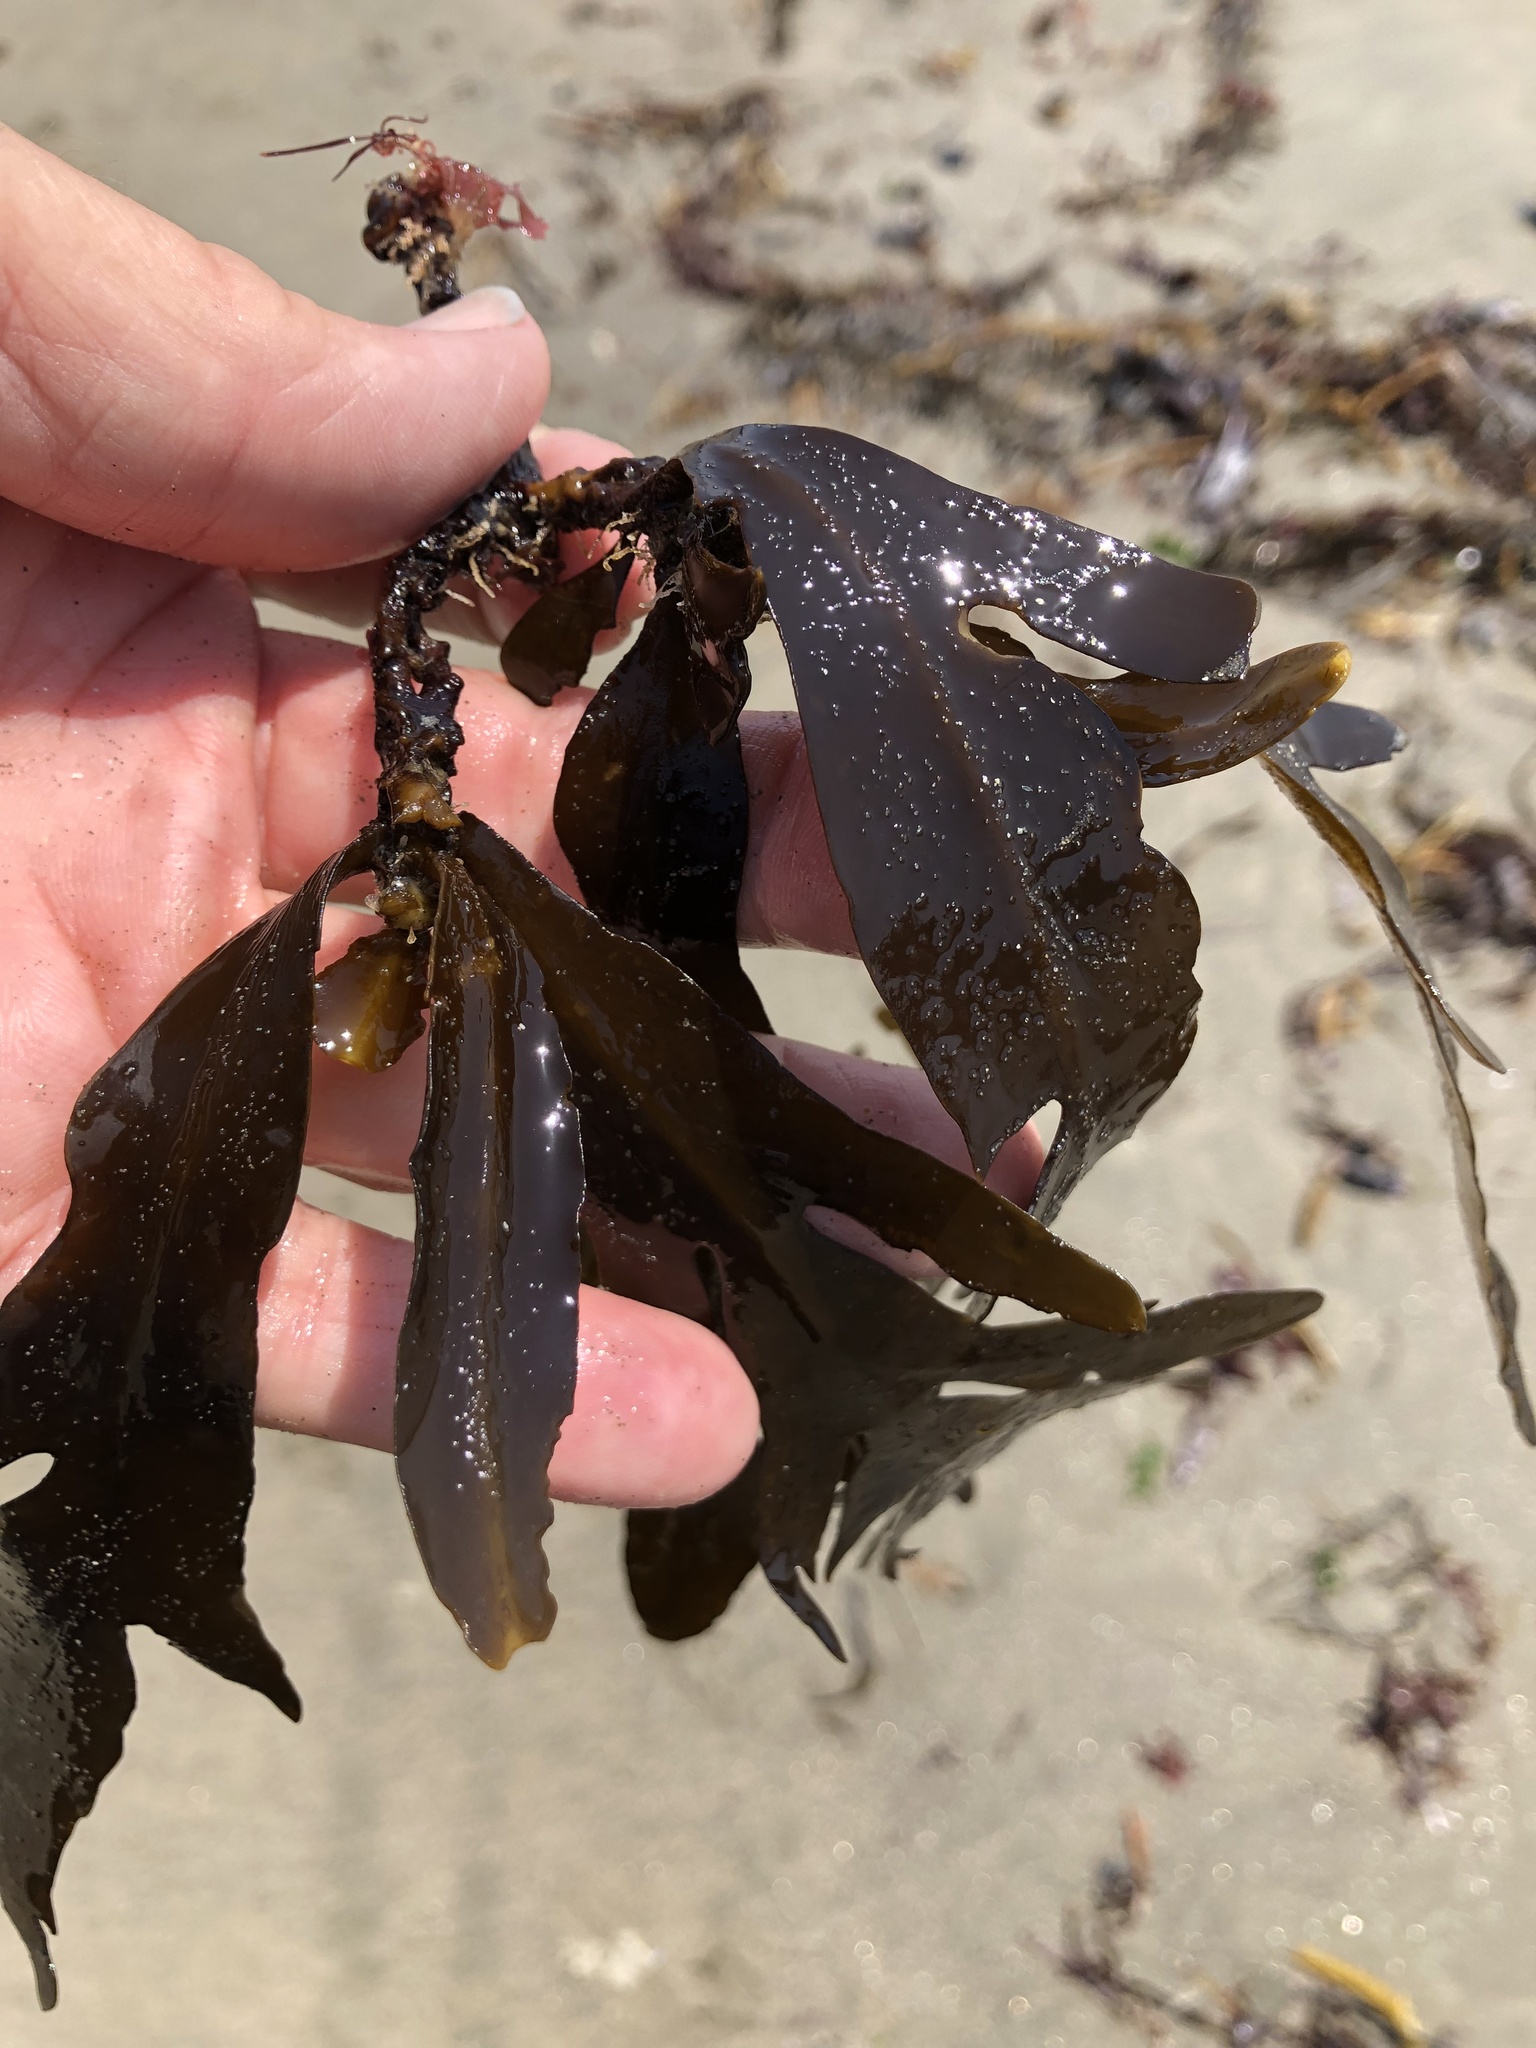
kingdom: Chromista
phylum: Ochrophyta
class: Phaeophyceae
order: Fucales
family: Sargassaceae
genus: Stephanocystis
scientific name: Stephanocystis
